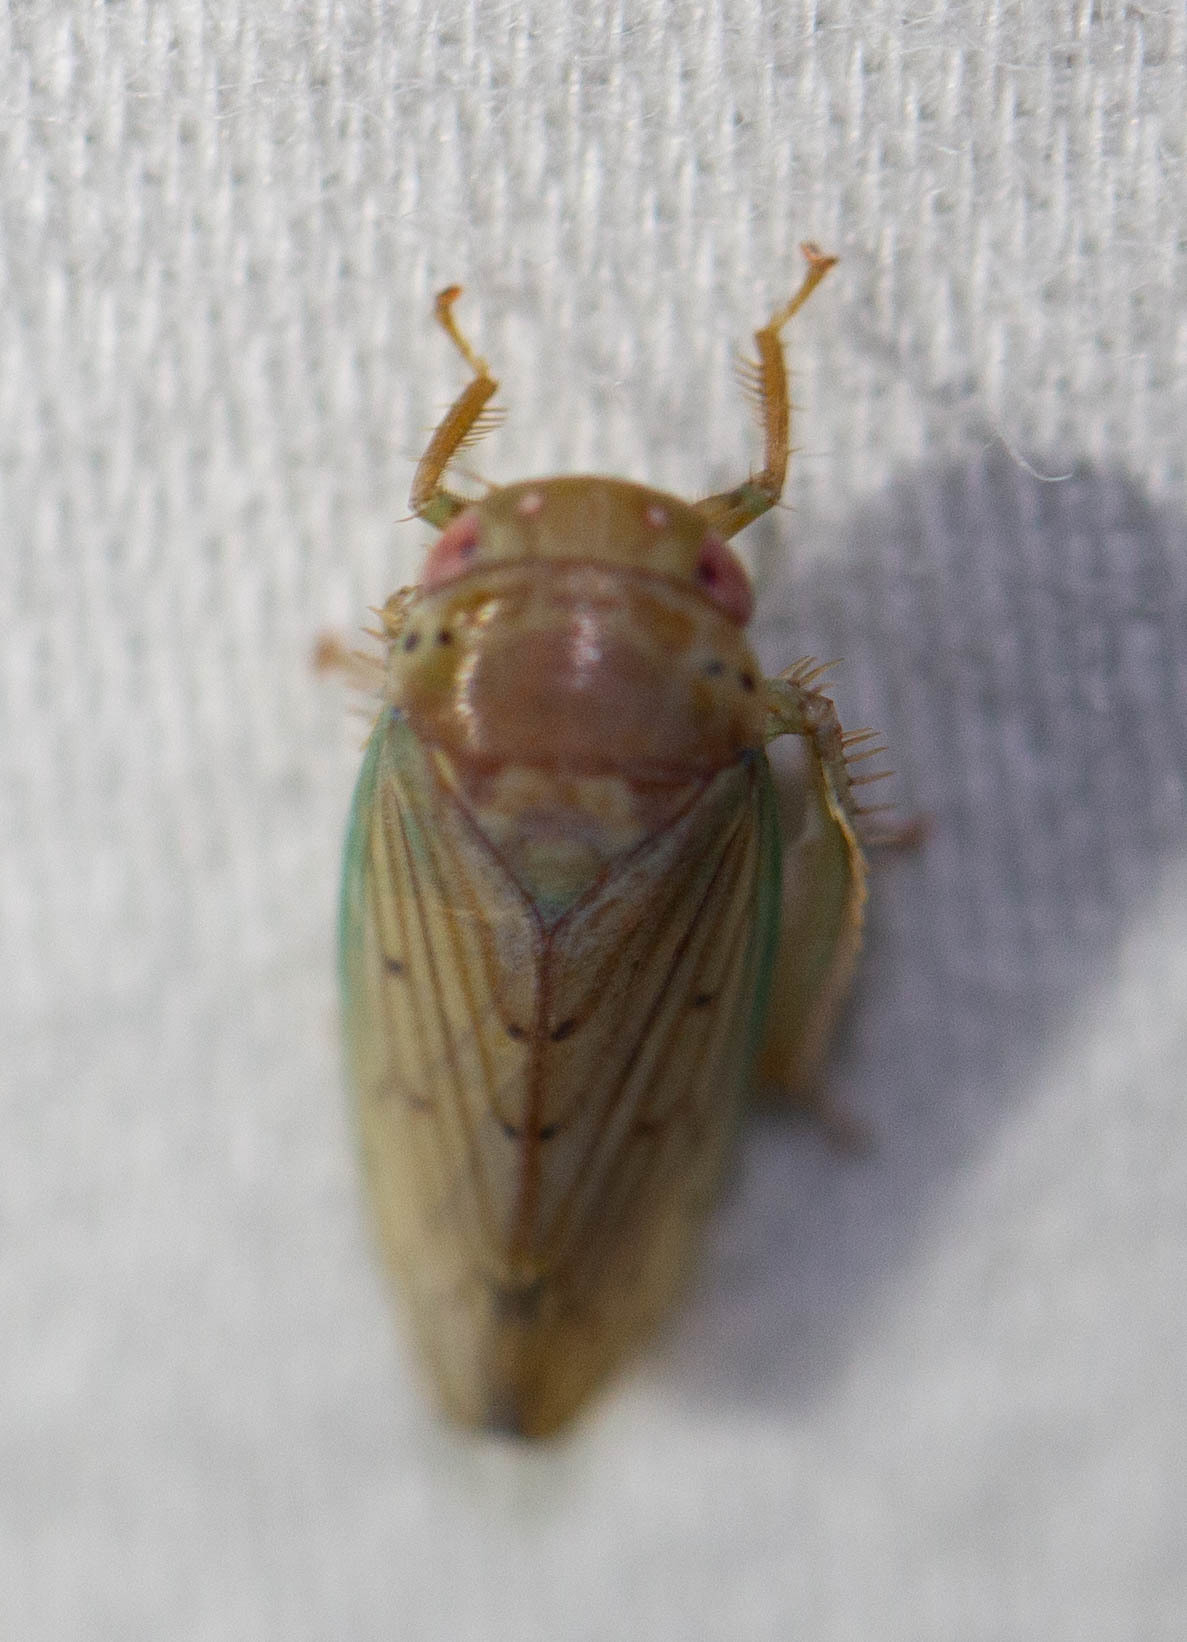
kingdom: Animalia
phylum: Arthropoda
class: Insecta
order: Hemiptera
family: Cicadellidae
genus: Polana
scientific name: Polana quadrinotata
